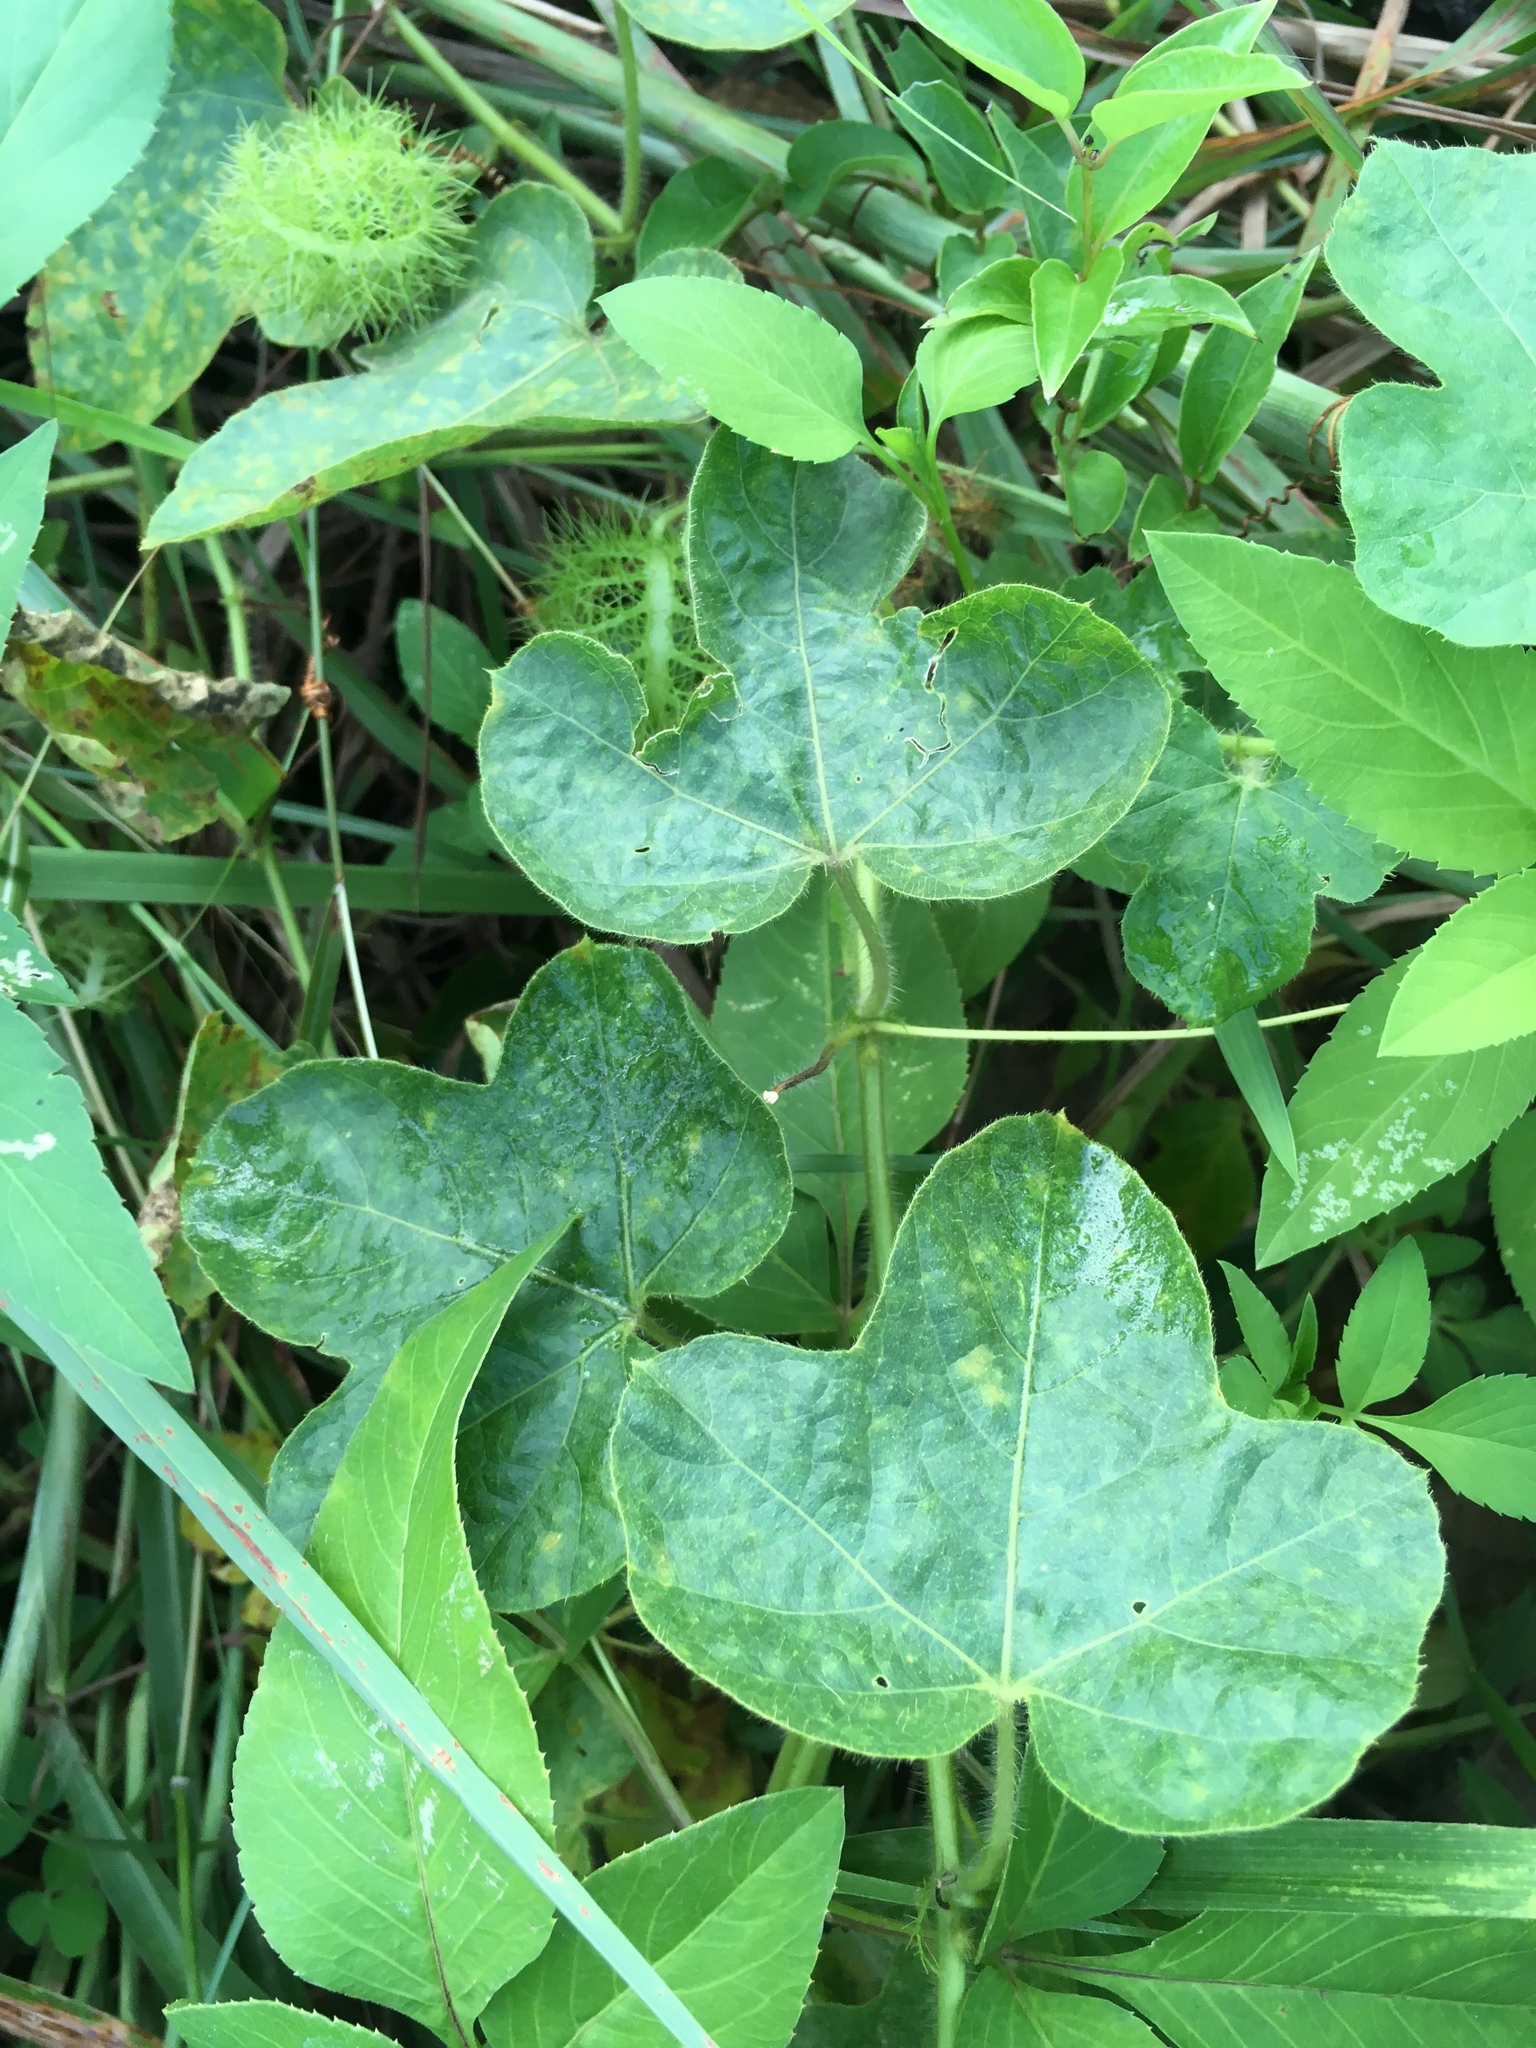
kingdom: Plantae
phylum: Tracheophyta
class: Magnoliopsida
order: Malpighiales
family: Passifloraceae
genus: Passiflora
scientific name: Passiflora vesicaria
